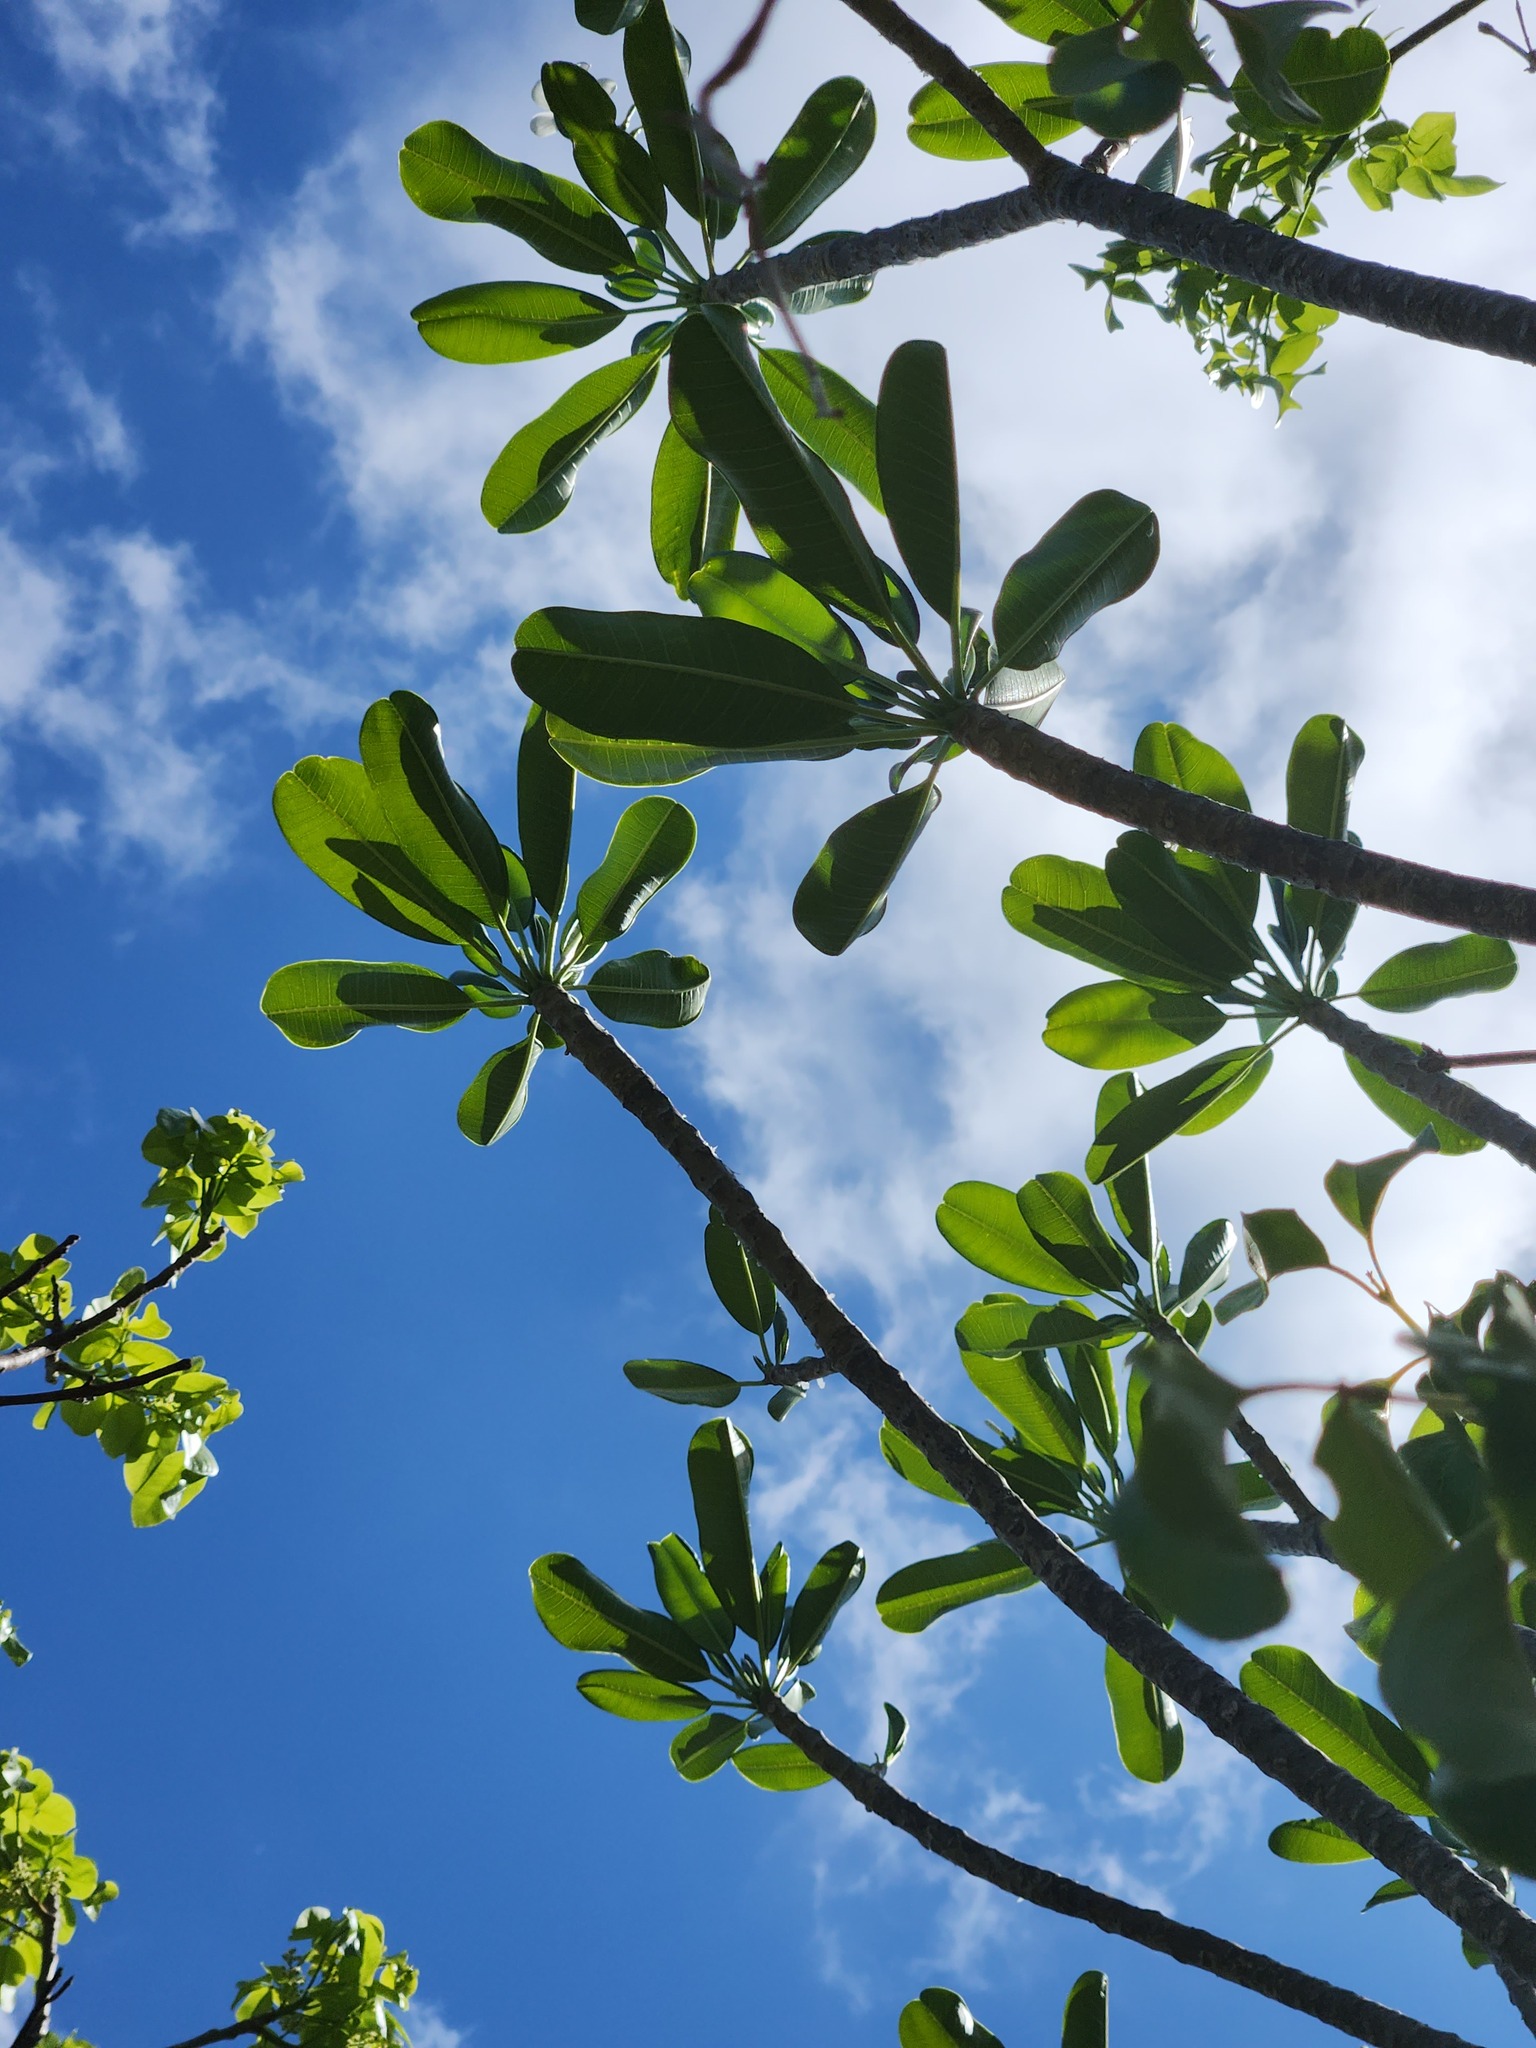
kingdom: Plantae
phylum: Tracheophyta
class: Magnoliopsida
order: Gentianales
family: Apocynaceae
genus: Plumeria
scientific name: Plumeria obtusa
